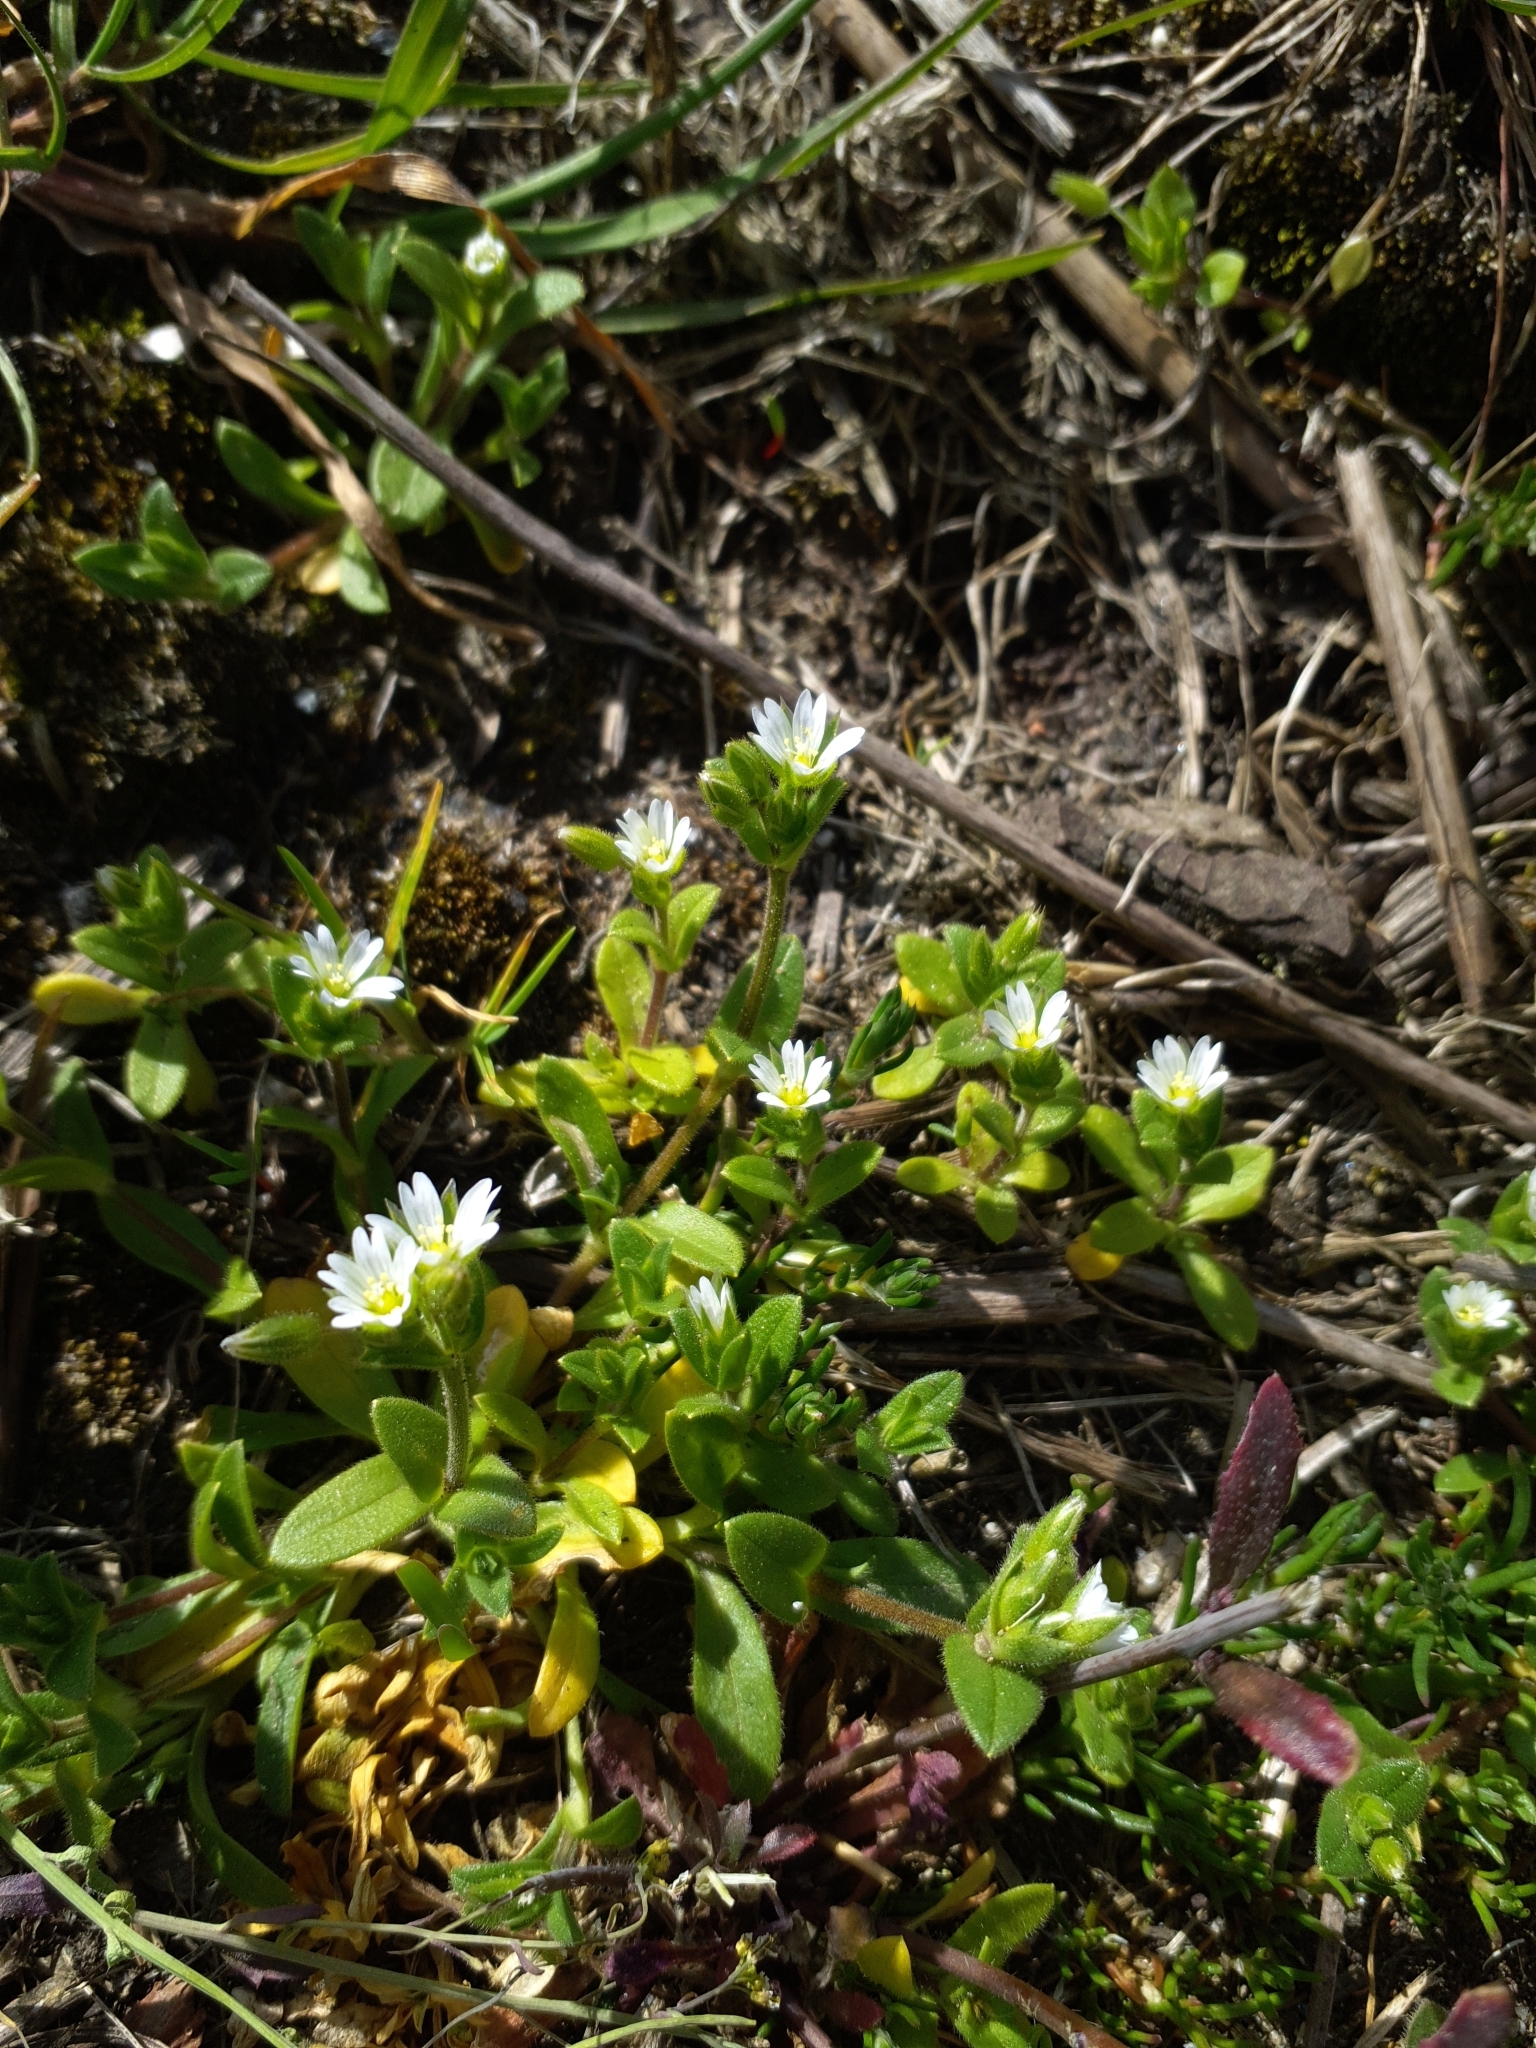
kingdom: Plantae
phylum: Tracheophyta
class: Magnoliopsida
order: Caryophyllales
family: Caryophyllaceae
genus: Cerastium
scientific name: Cerastium glutinosum
